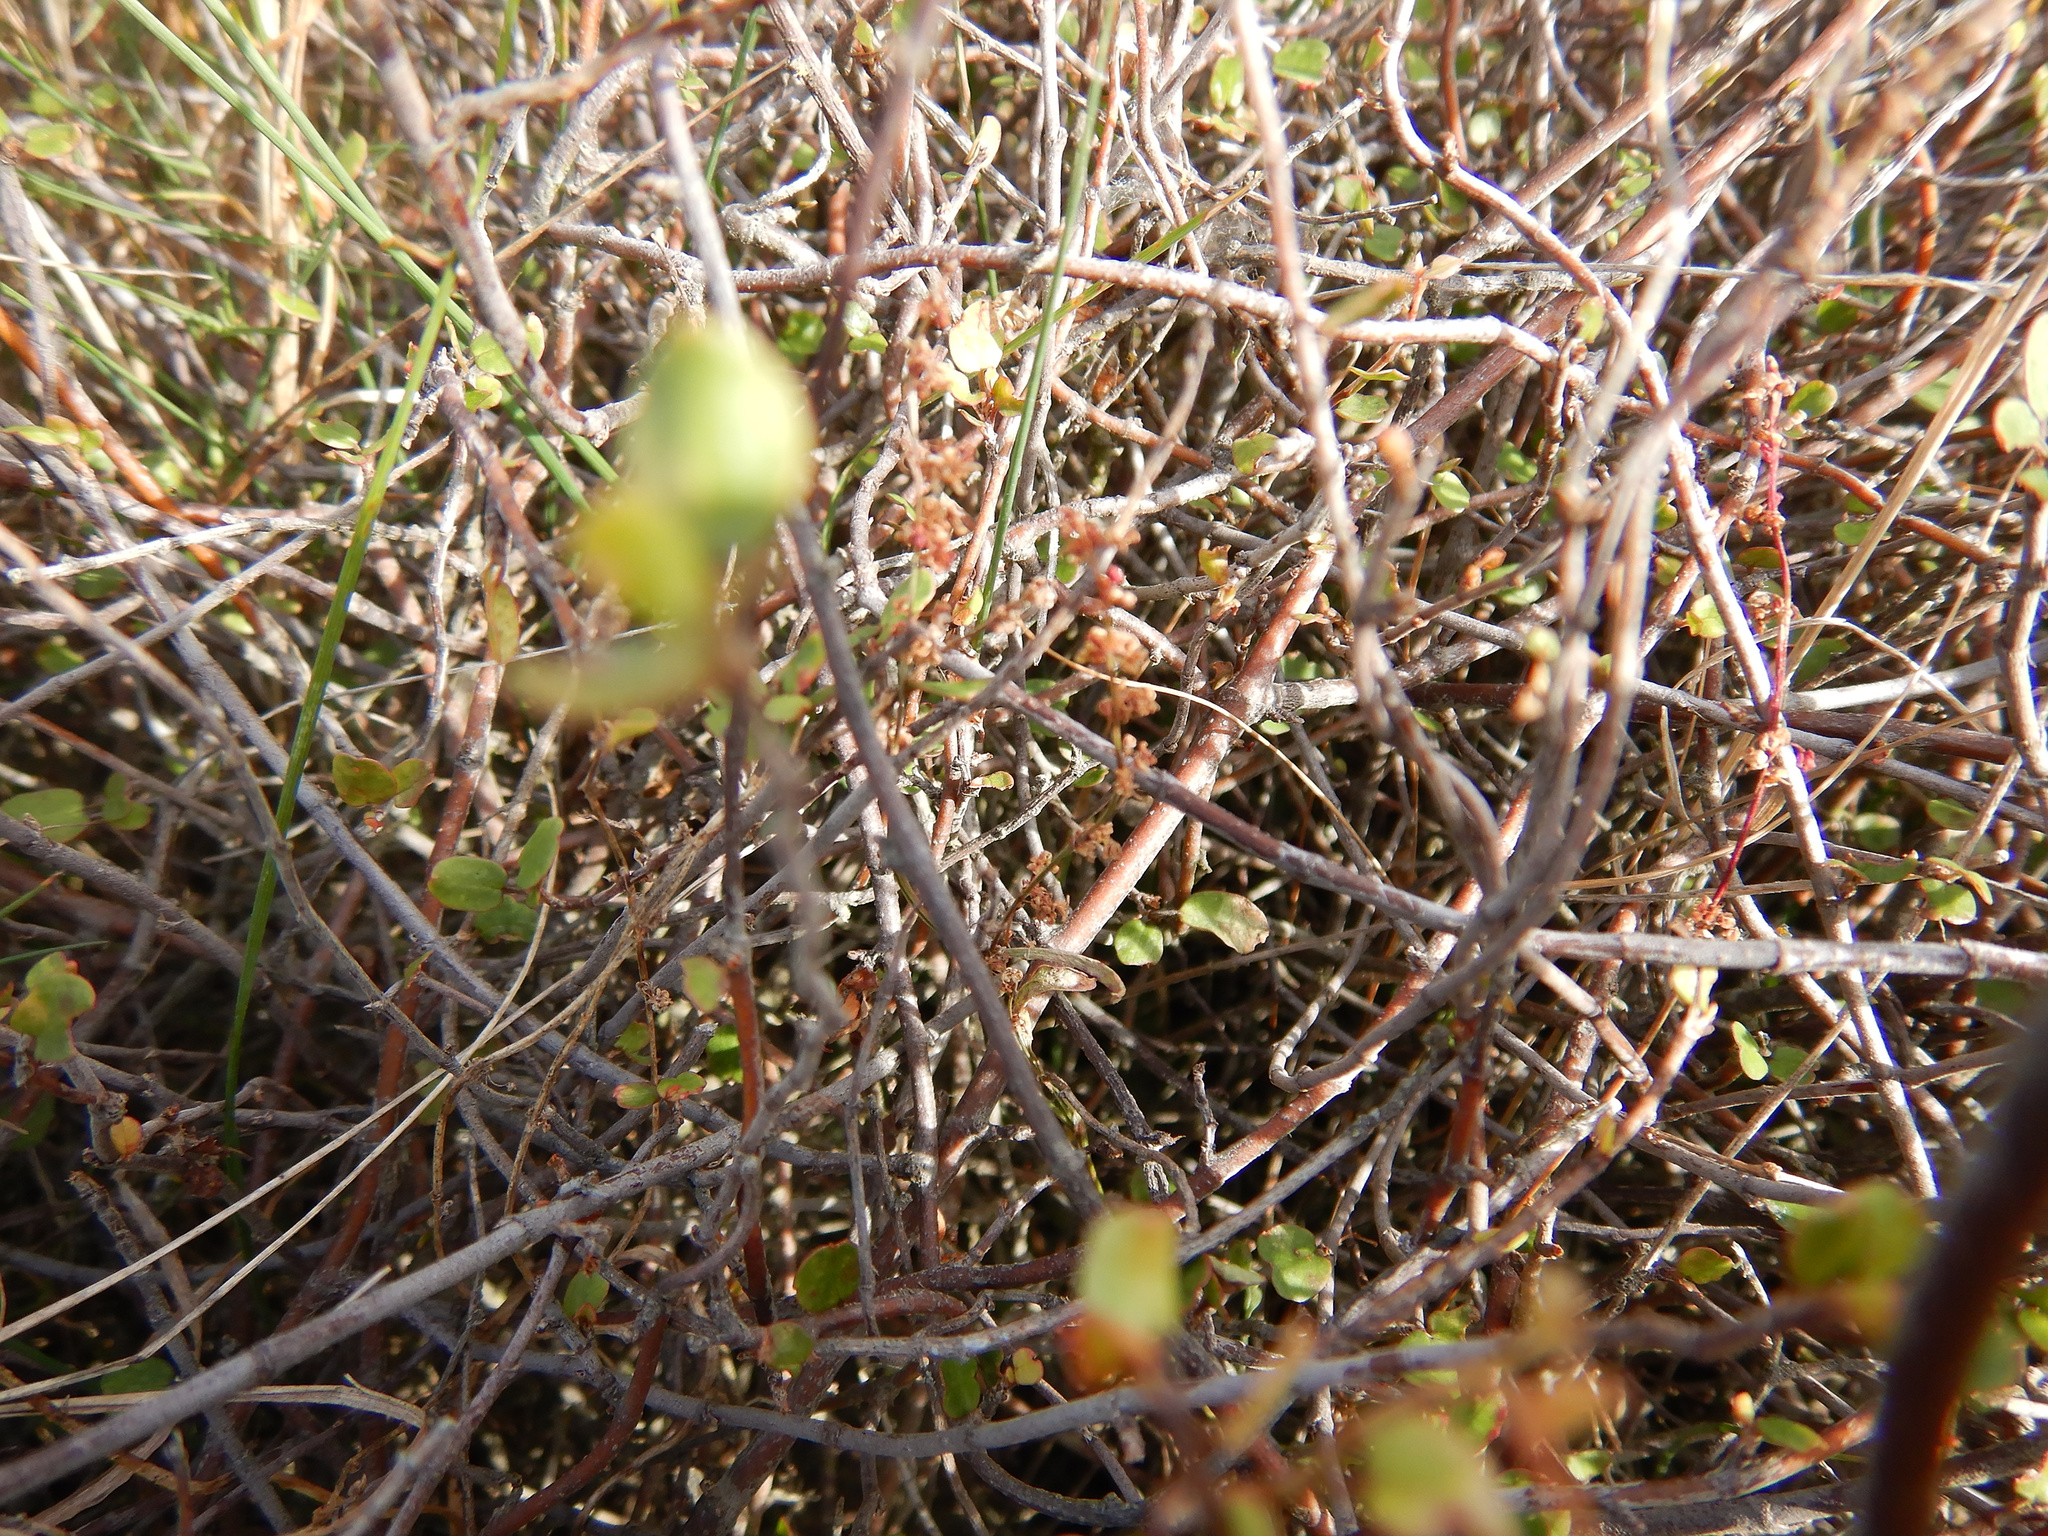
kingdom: Plantae
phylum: Tracheophyta
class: Magnoliopsida
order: Caryophyllales
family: Polygonaceae
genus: Muehlenbeckia
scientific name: Muehlenbeckia complexa
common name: Wireplant
